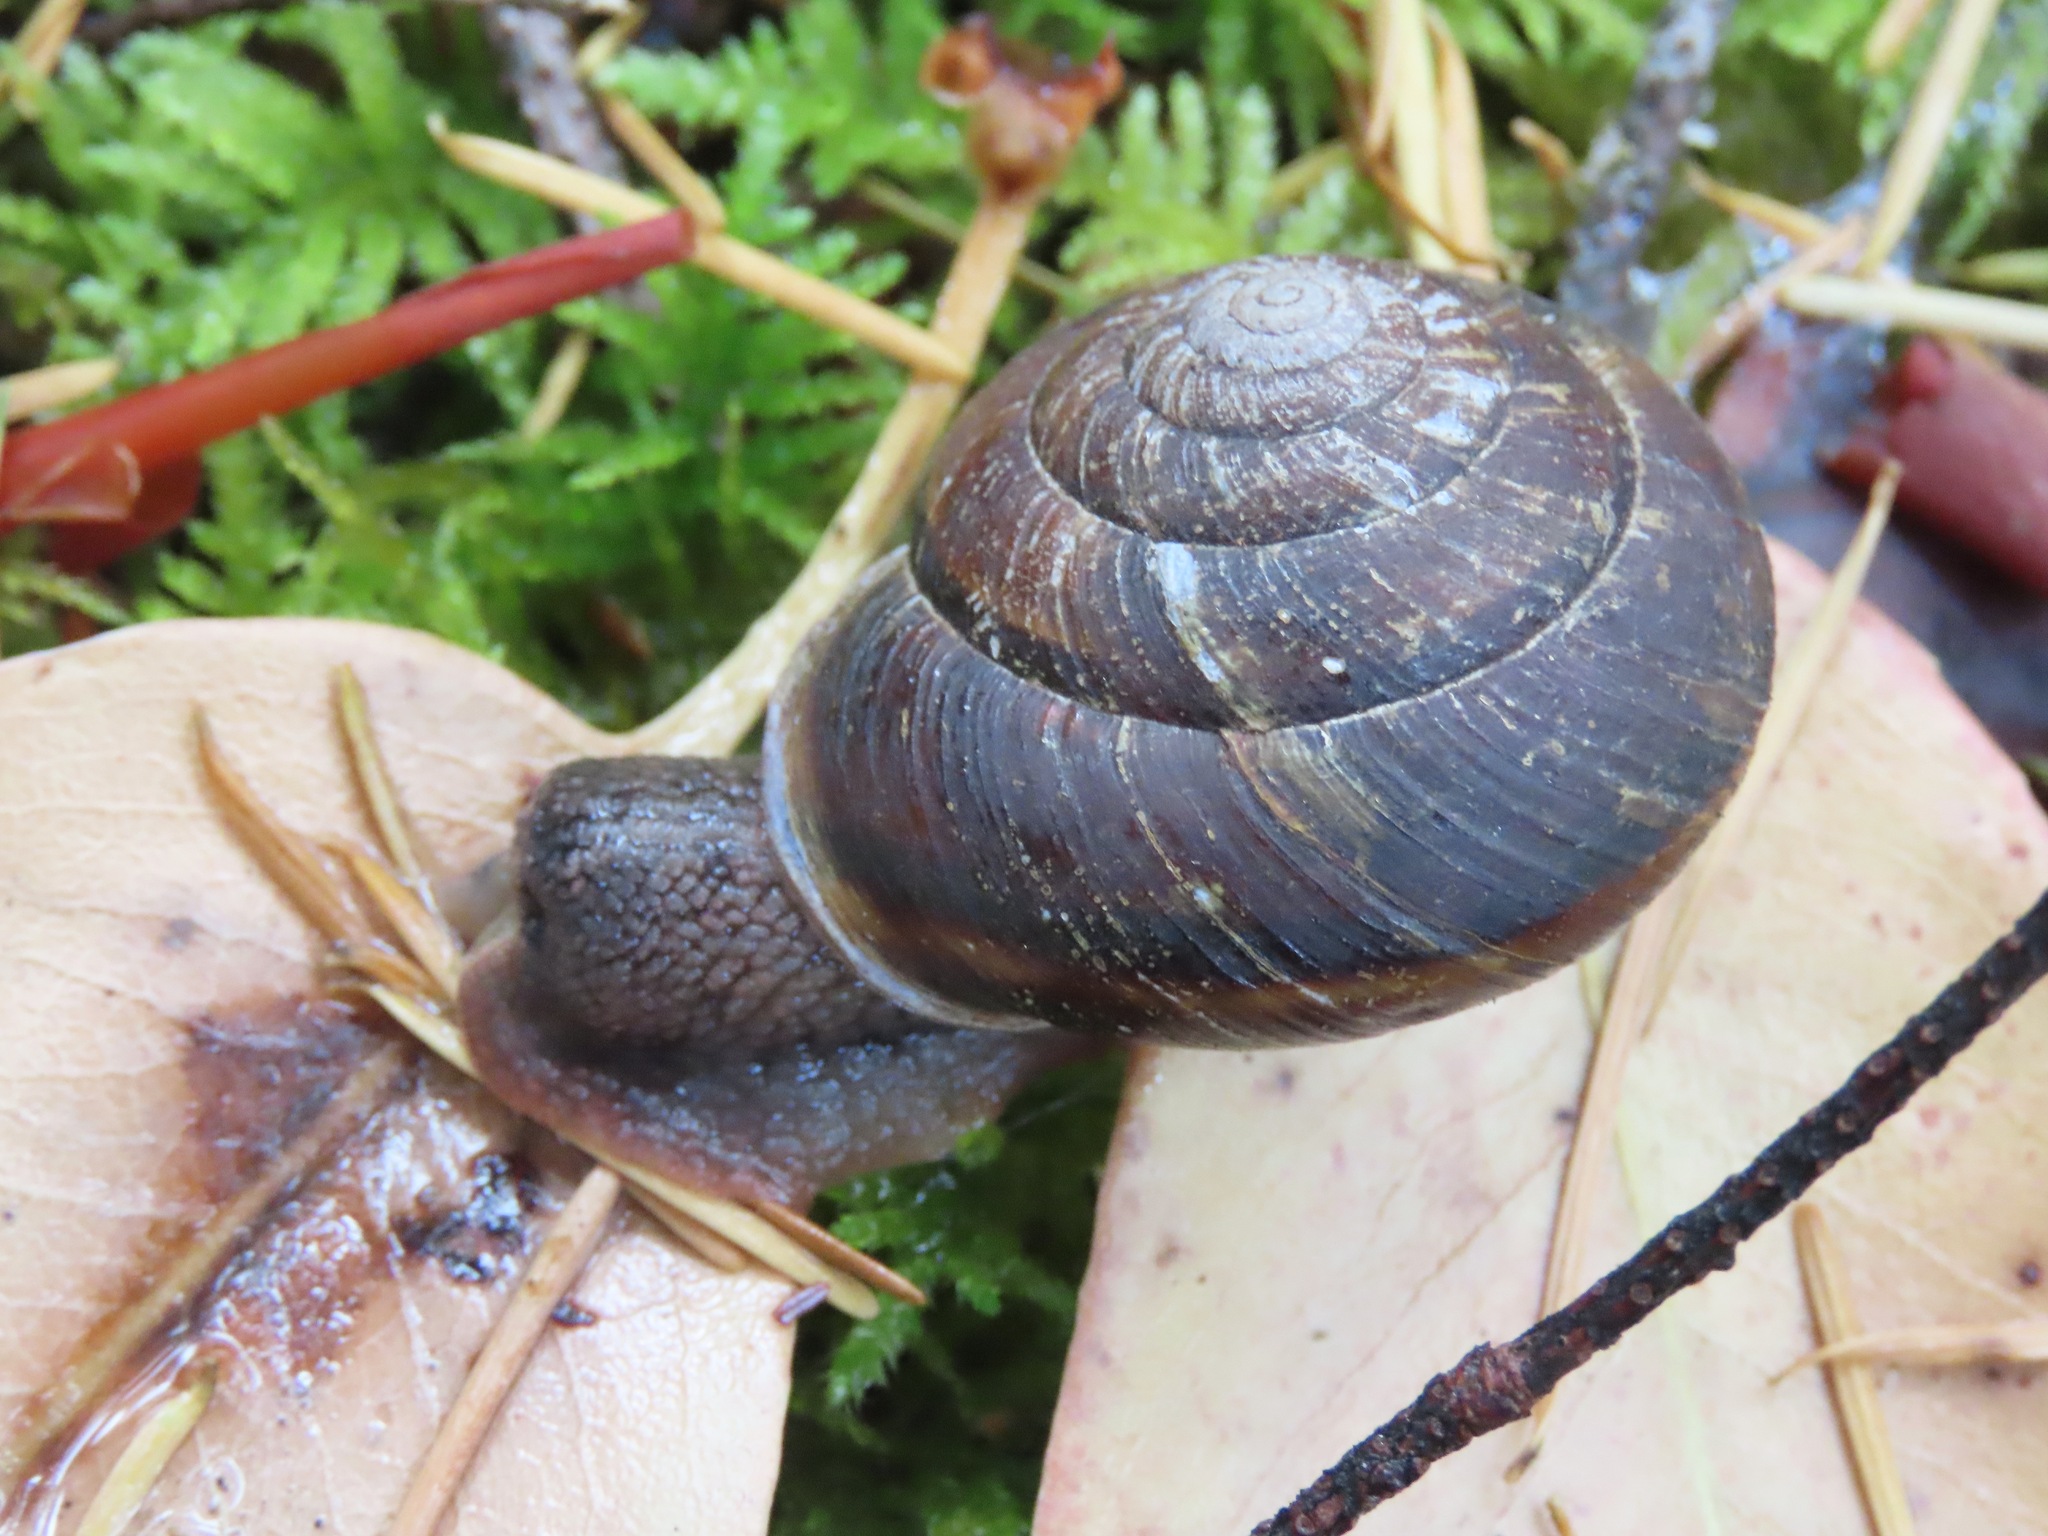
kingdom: Animalia
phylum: Mollusca
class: Gastropoda
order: Stylommatophora
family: Xanthonychidae
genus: Monadenia
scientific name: Monadenia fidelis
